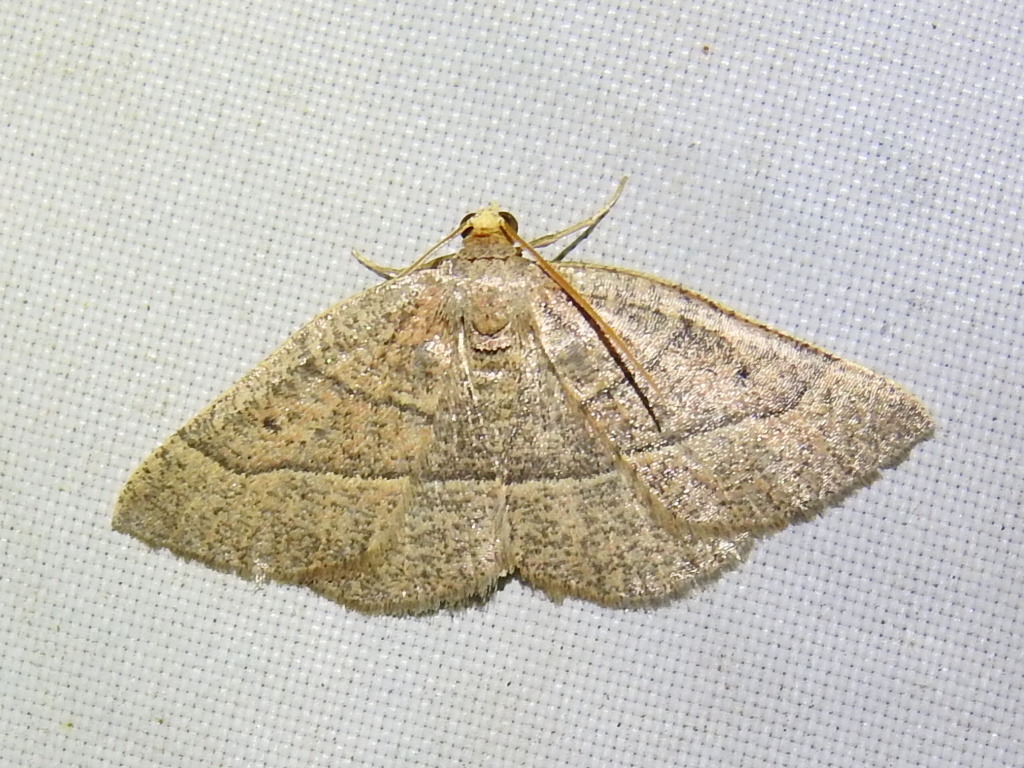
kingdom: Animalia
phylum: Arthropoda
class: Insecta
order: Lepidoptera
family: Geometridae
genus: Episemasia
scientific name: Episemasia cervinaria
